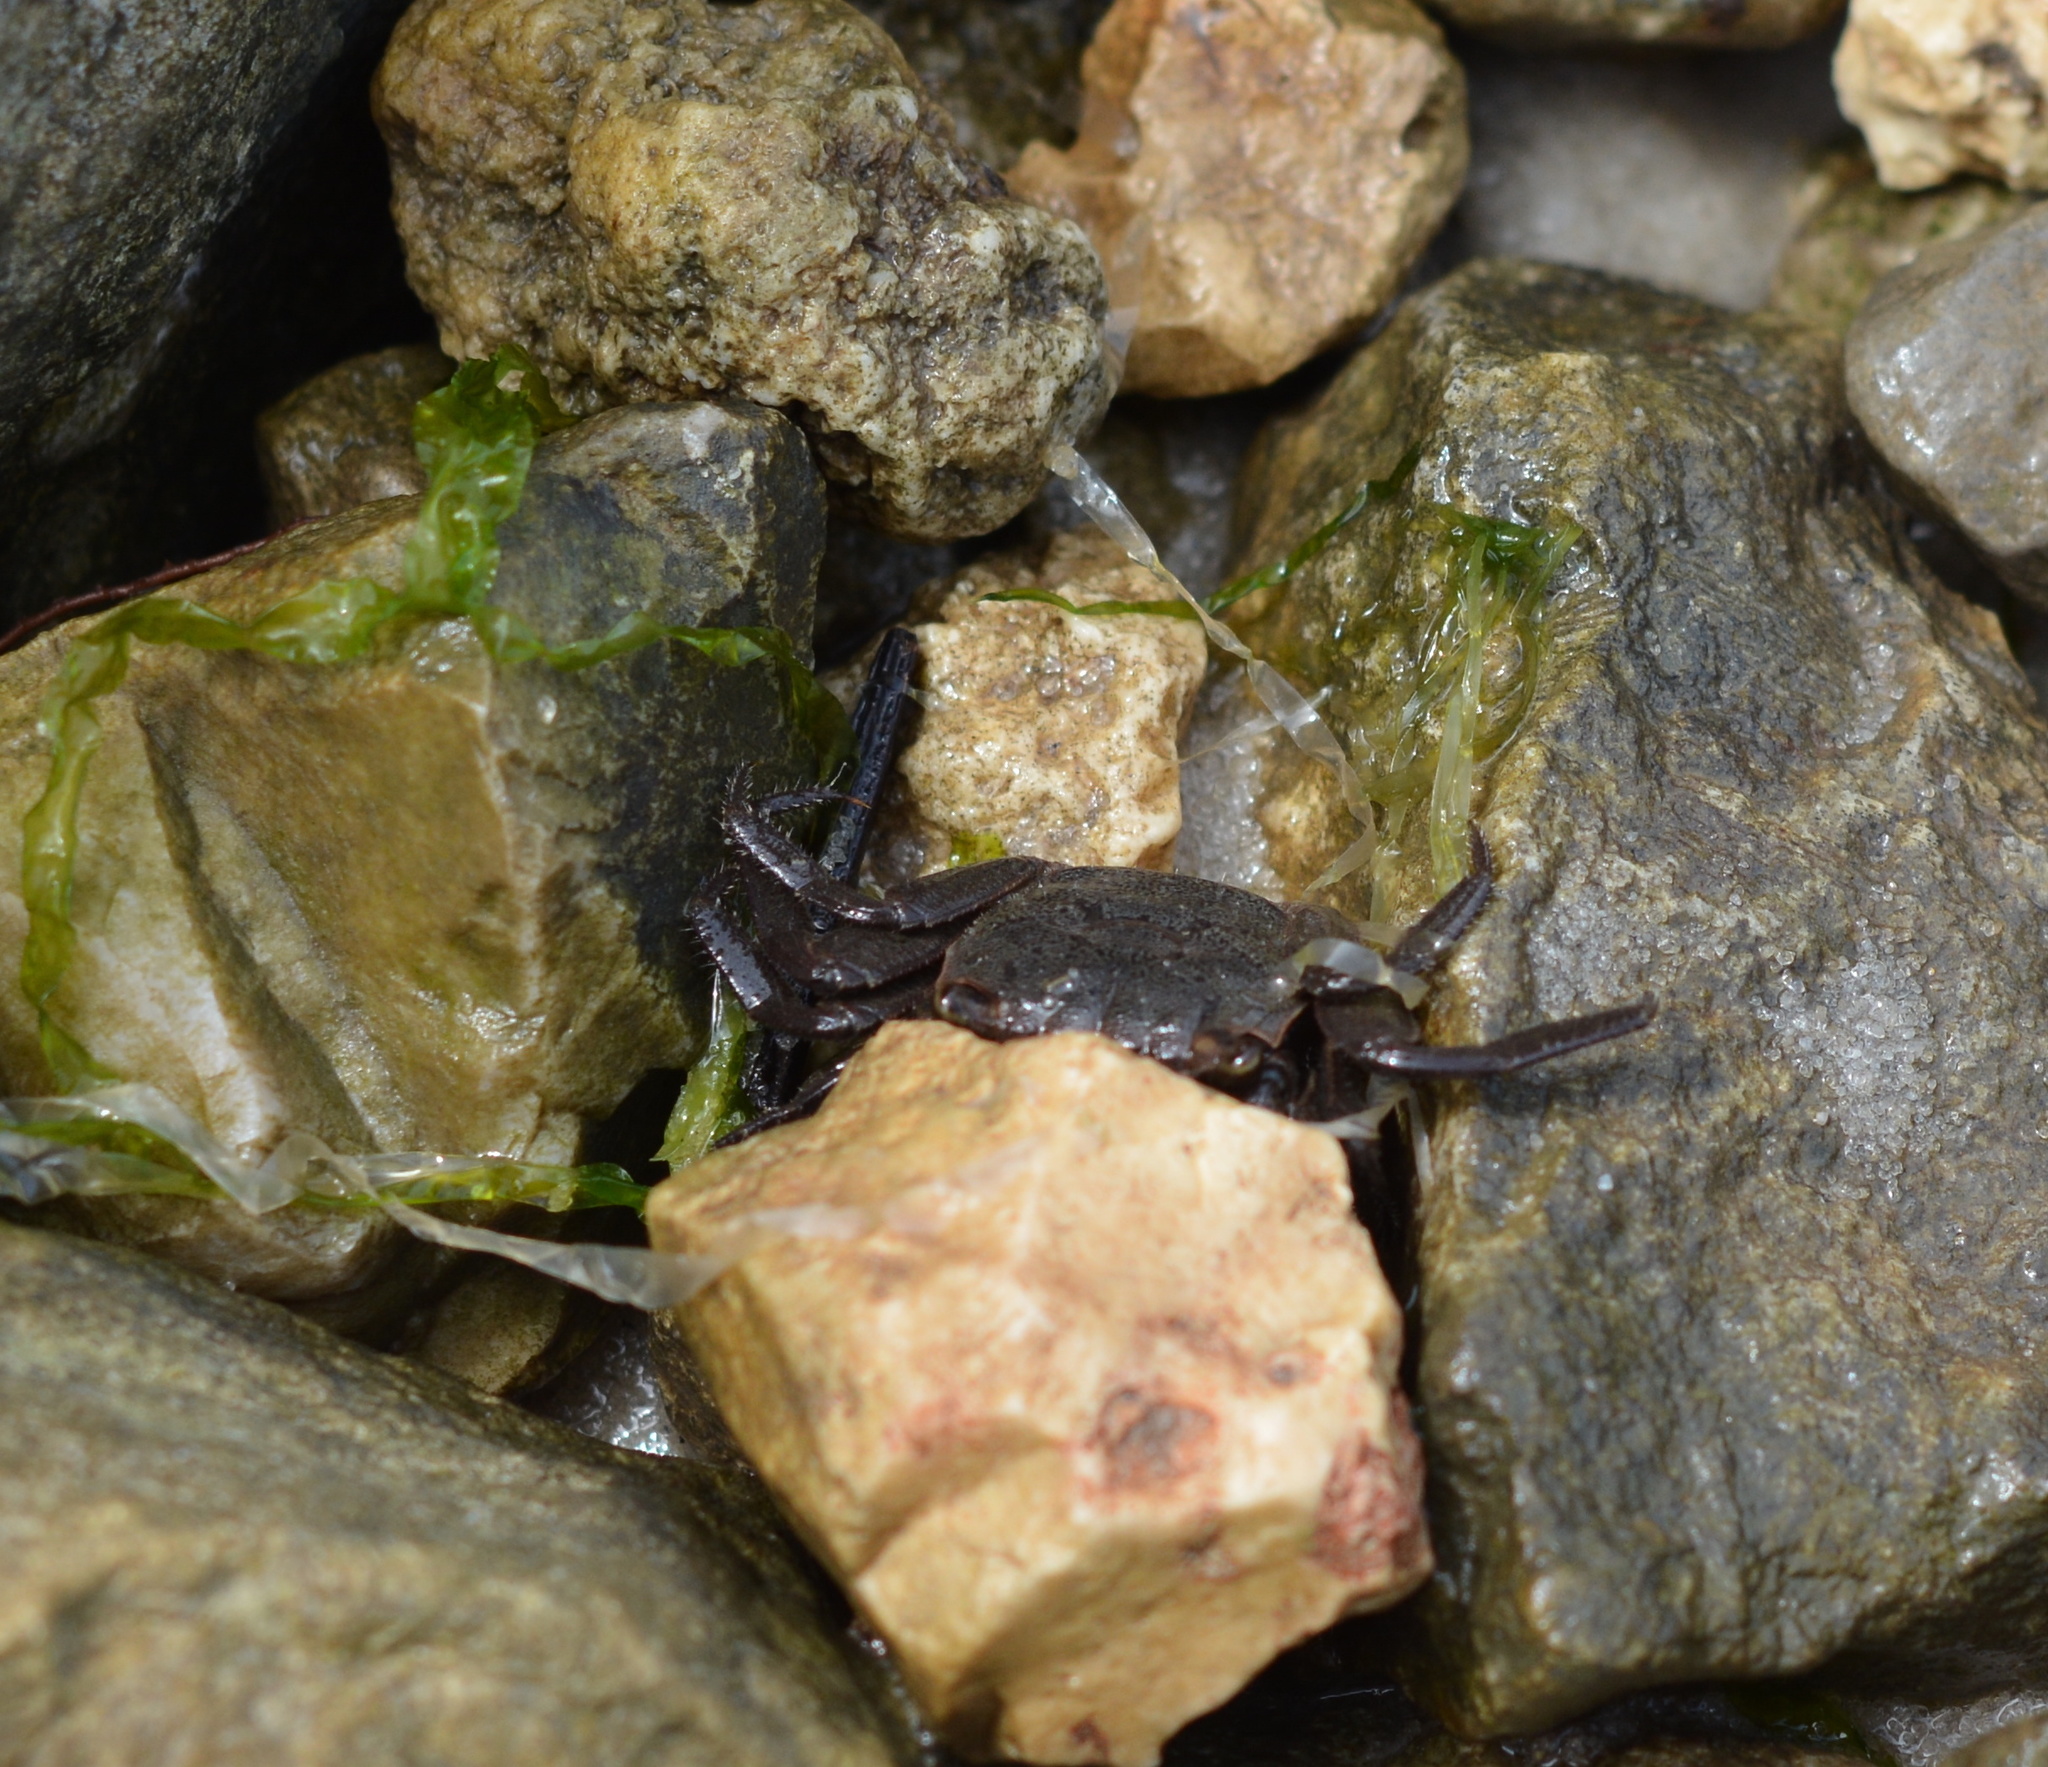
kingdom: Animalia
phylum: Arthropoda
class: Malacostraca
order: Decapoda
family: Sesarmidae
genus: Armases
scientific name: Armases cinereum
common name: Squareback marsh crab
